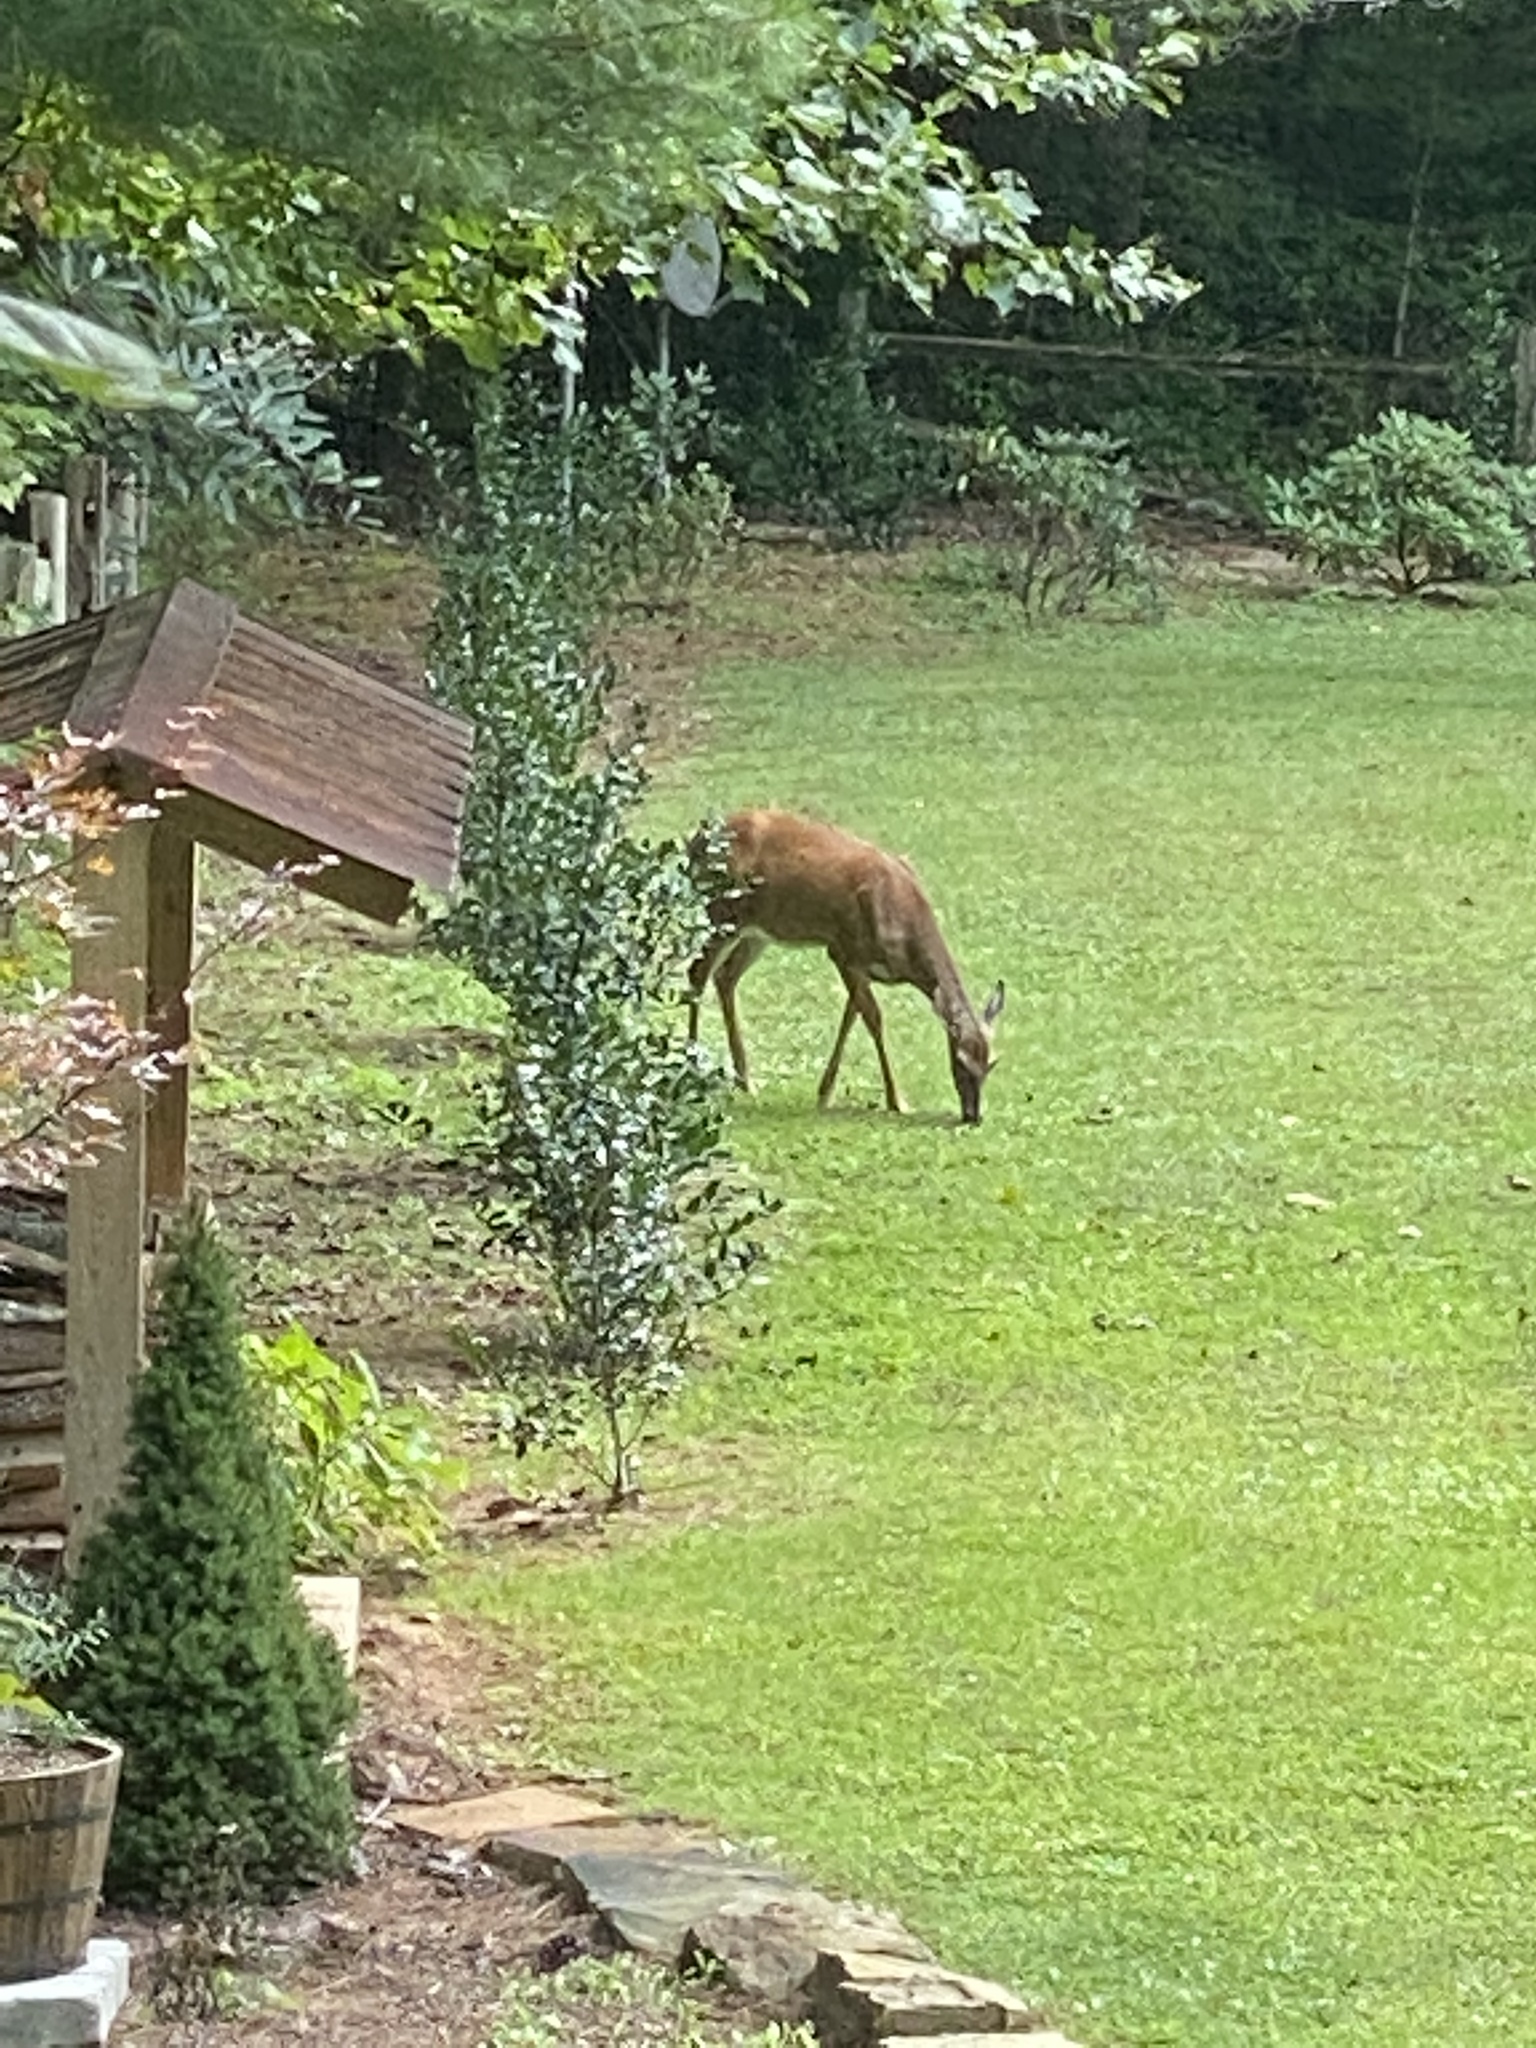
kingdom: Animalia
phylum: Chordata
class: Mammalia
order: Artiodactyla
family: Cervidae
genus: Odocoileus
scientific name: Odocoileus virginianus
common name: White-tailed deer
